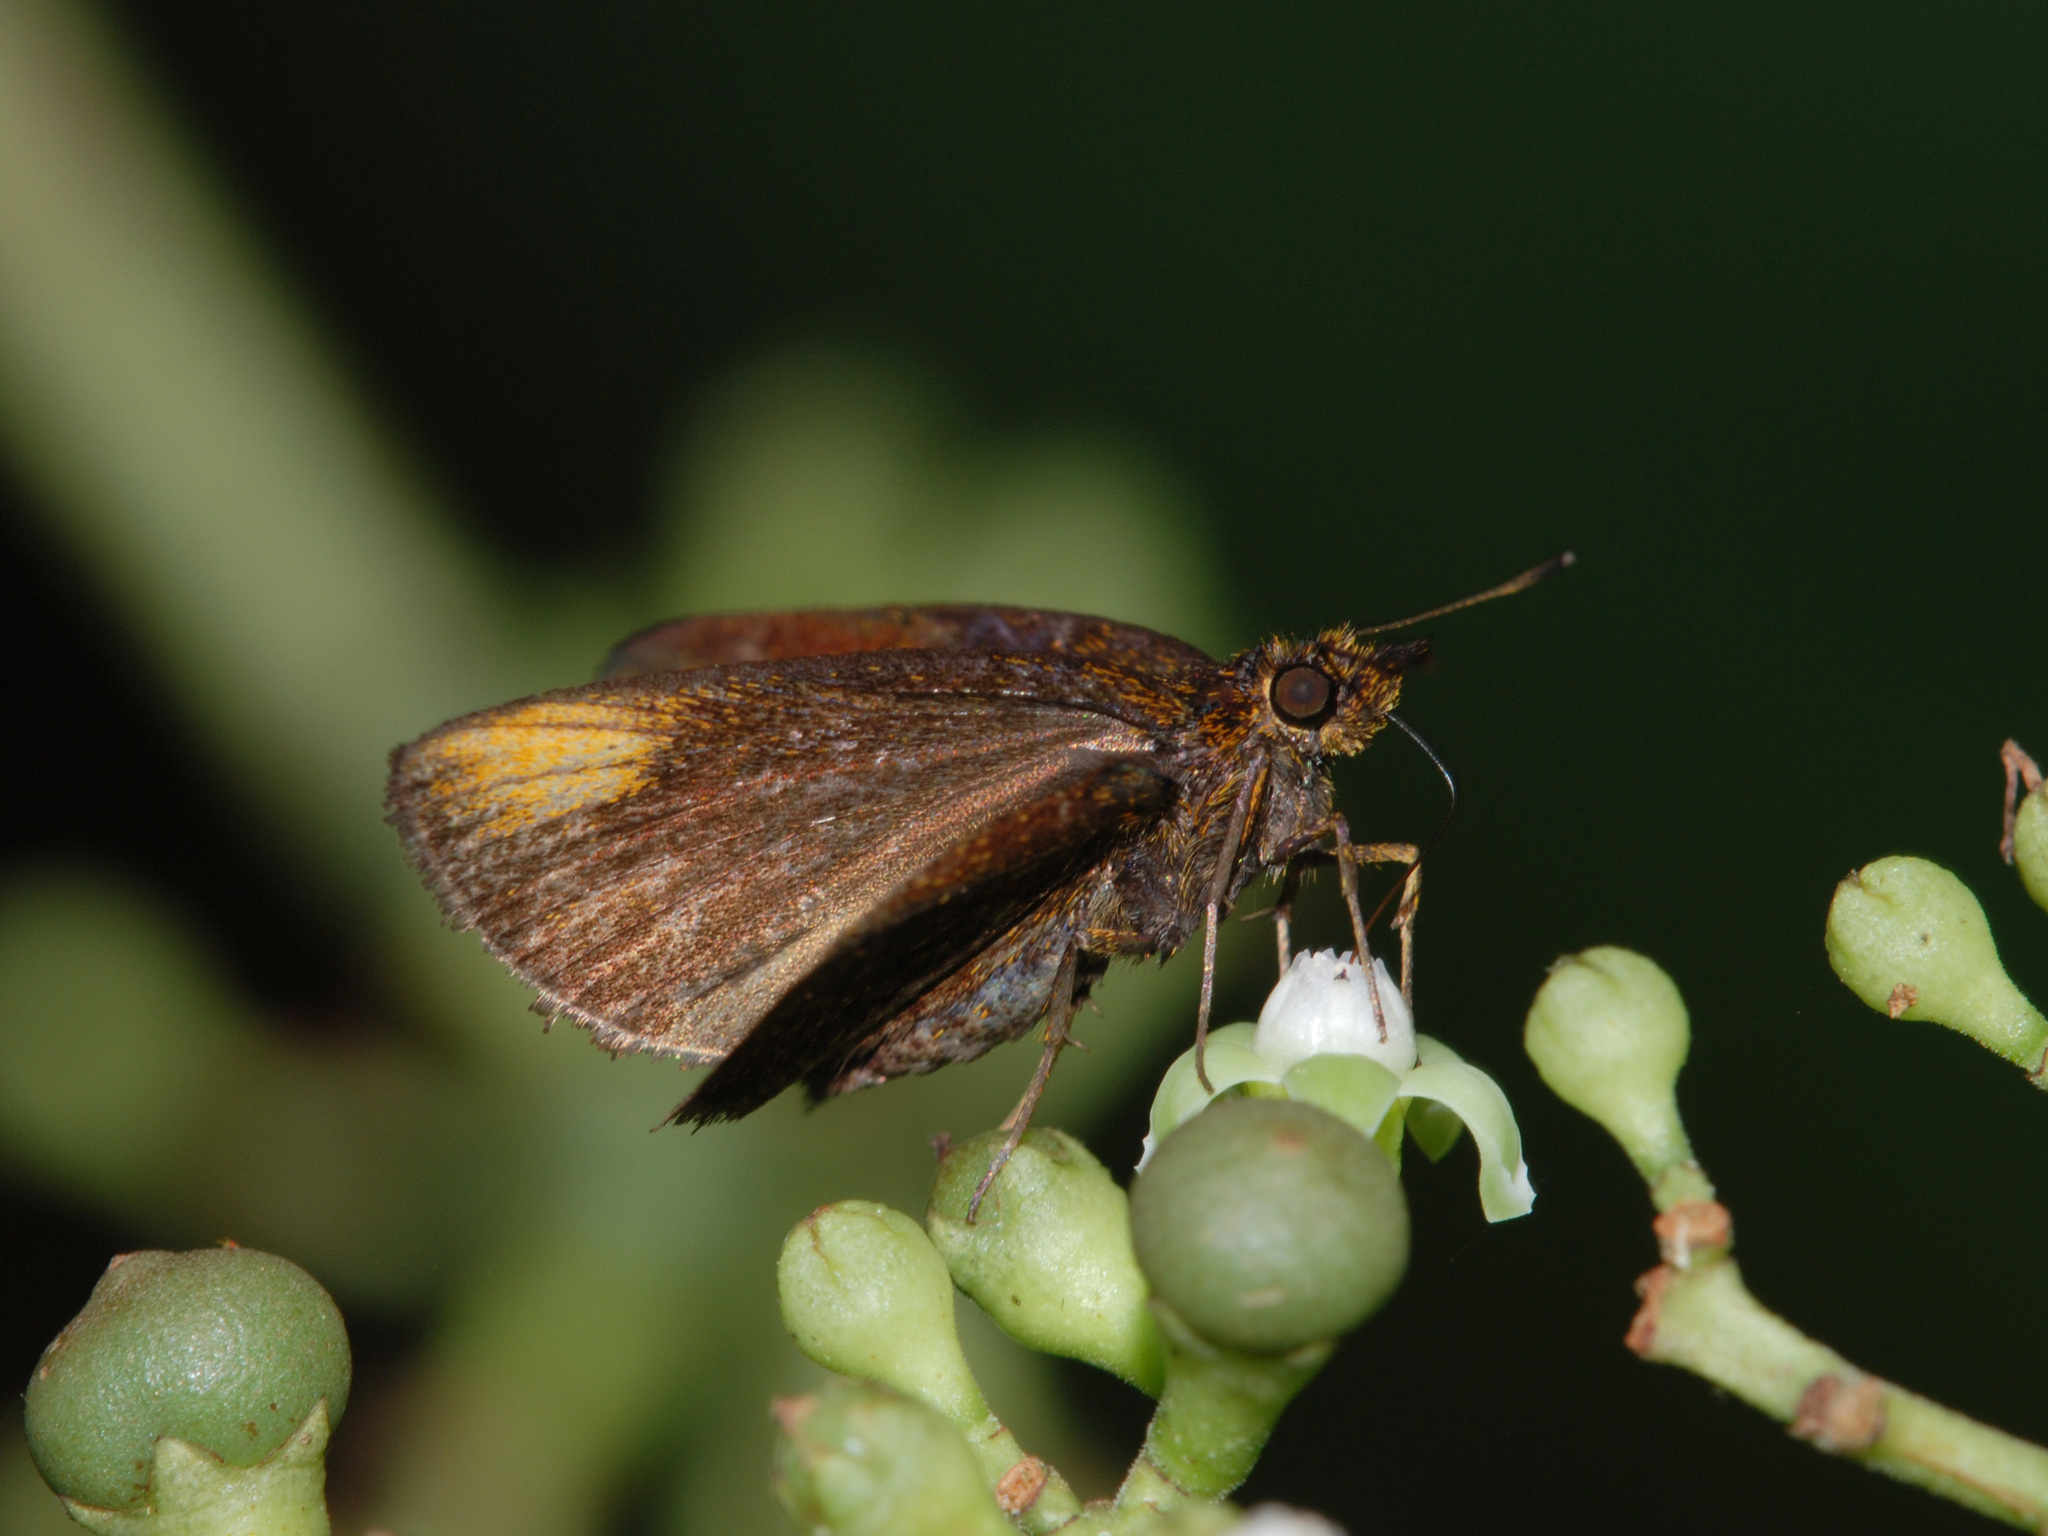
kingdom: Animalia
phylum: Arthropoda
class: Insecta
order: Lepidoptera
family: Hesperiidae
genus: Arnetta
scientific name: Arnetta verones
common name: Sumatran bob
